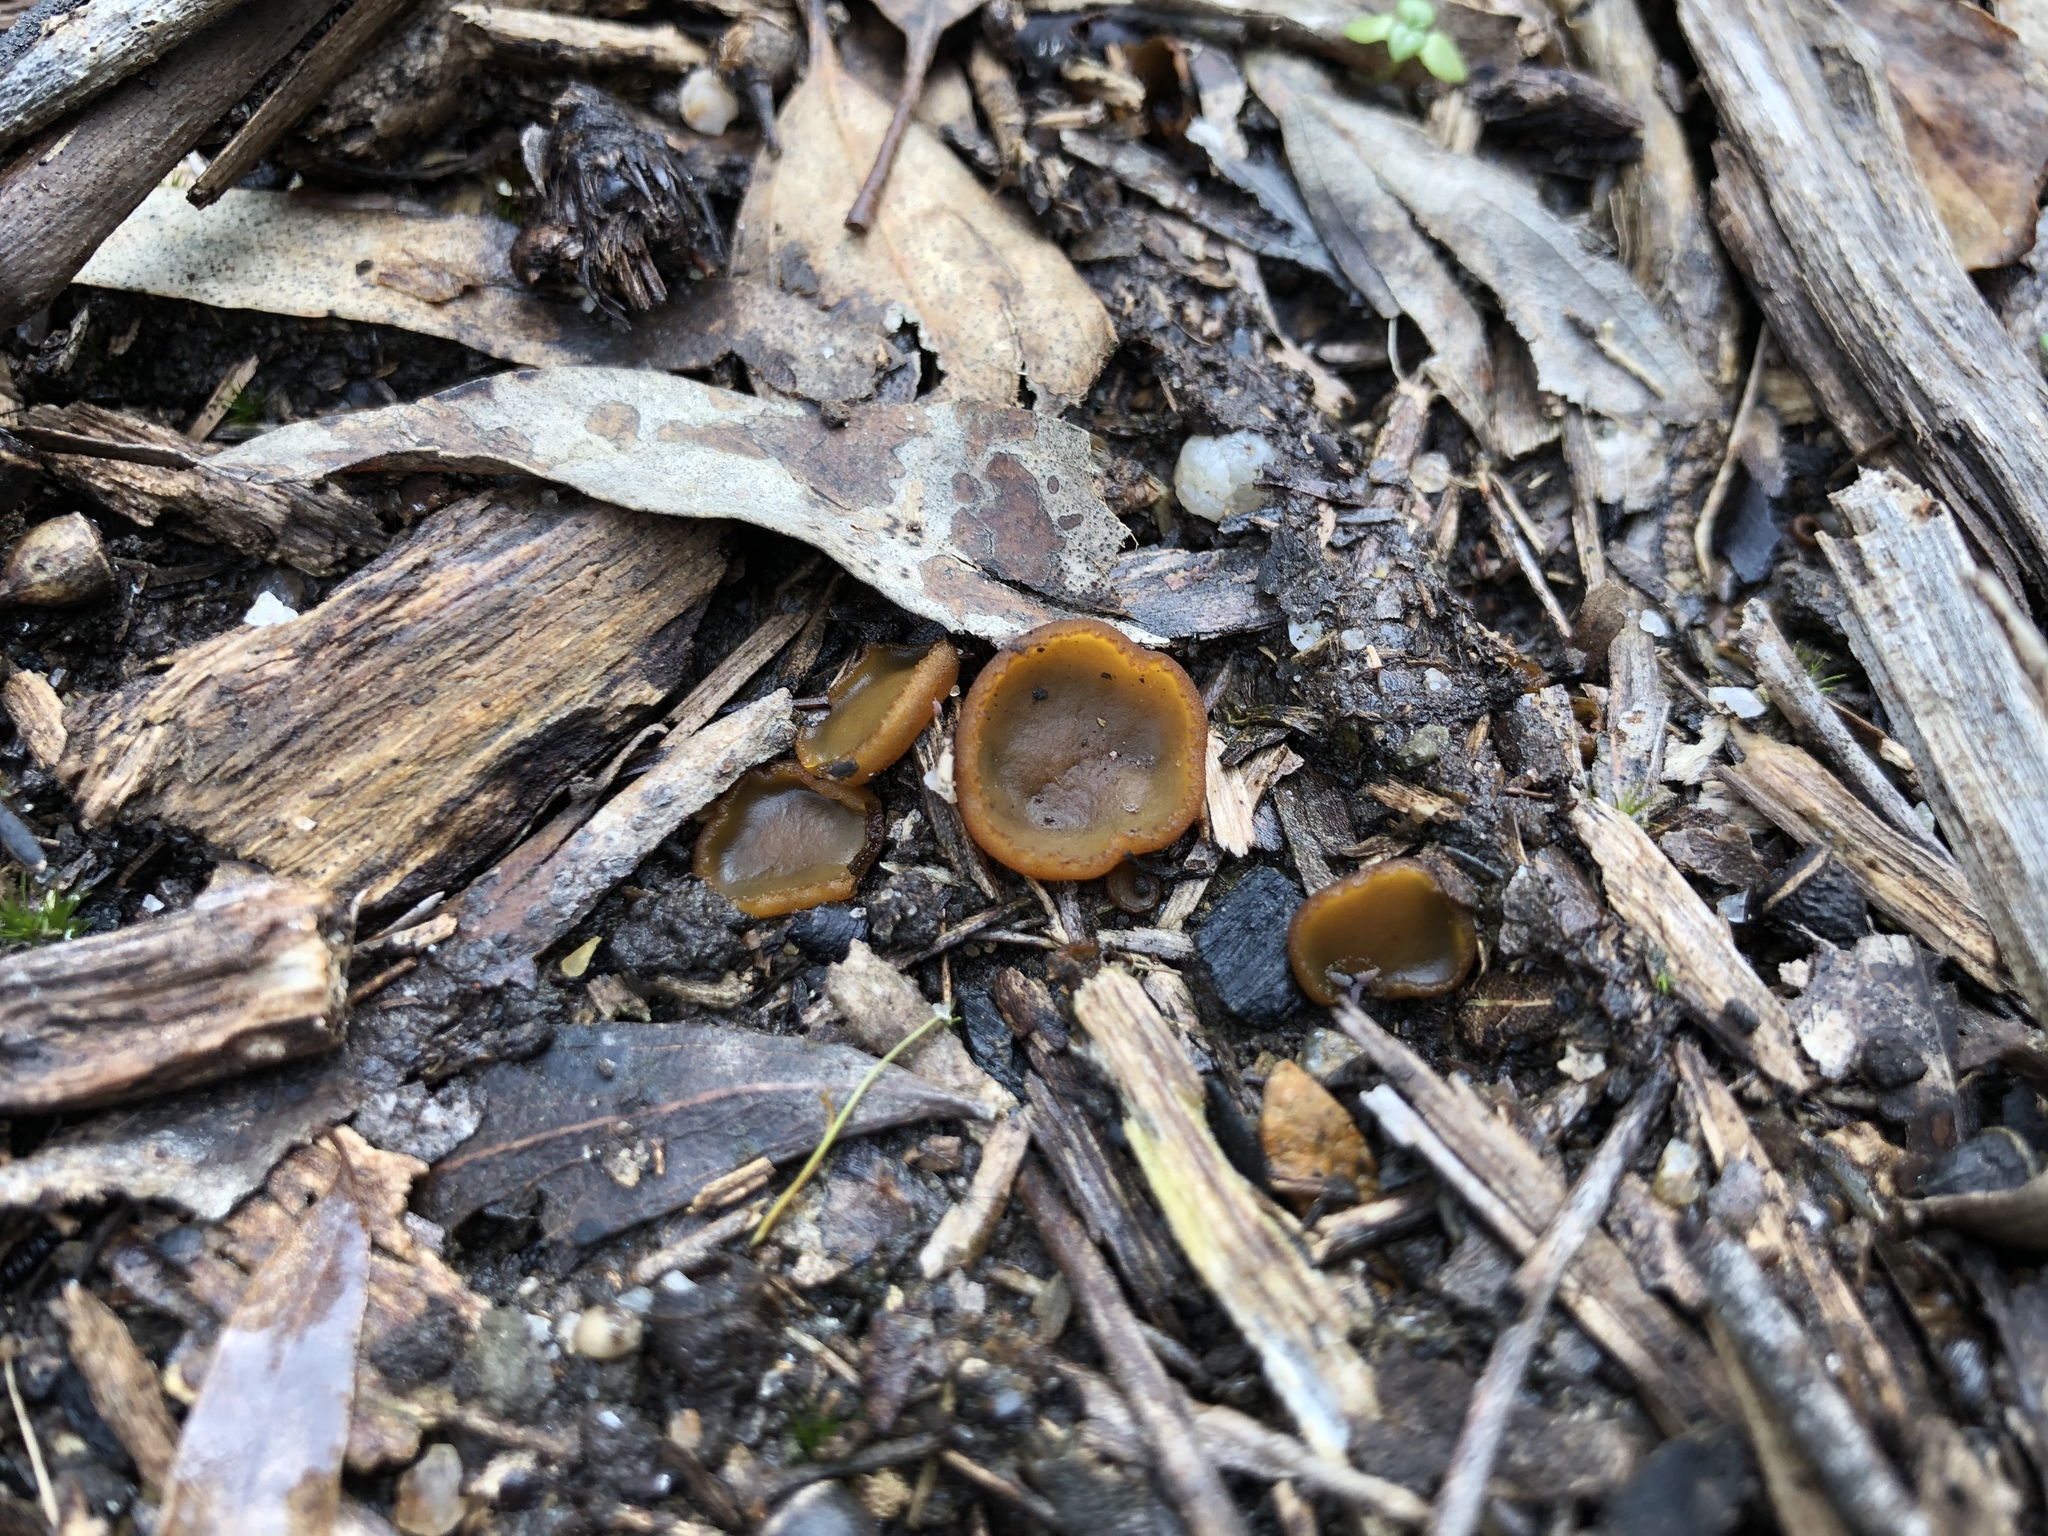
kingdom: Fungi
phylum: Ascomycota
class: Pezizomycetes
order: Pezizales
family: Pyronemataceae
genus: Aleurina
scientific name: Aleurina ferruginea
